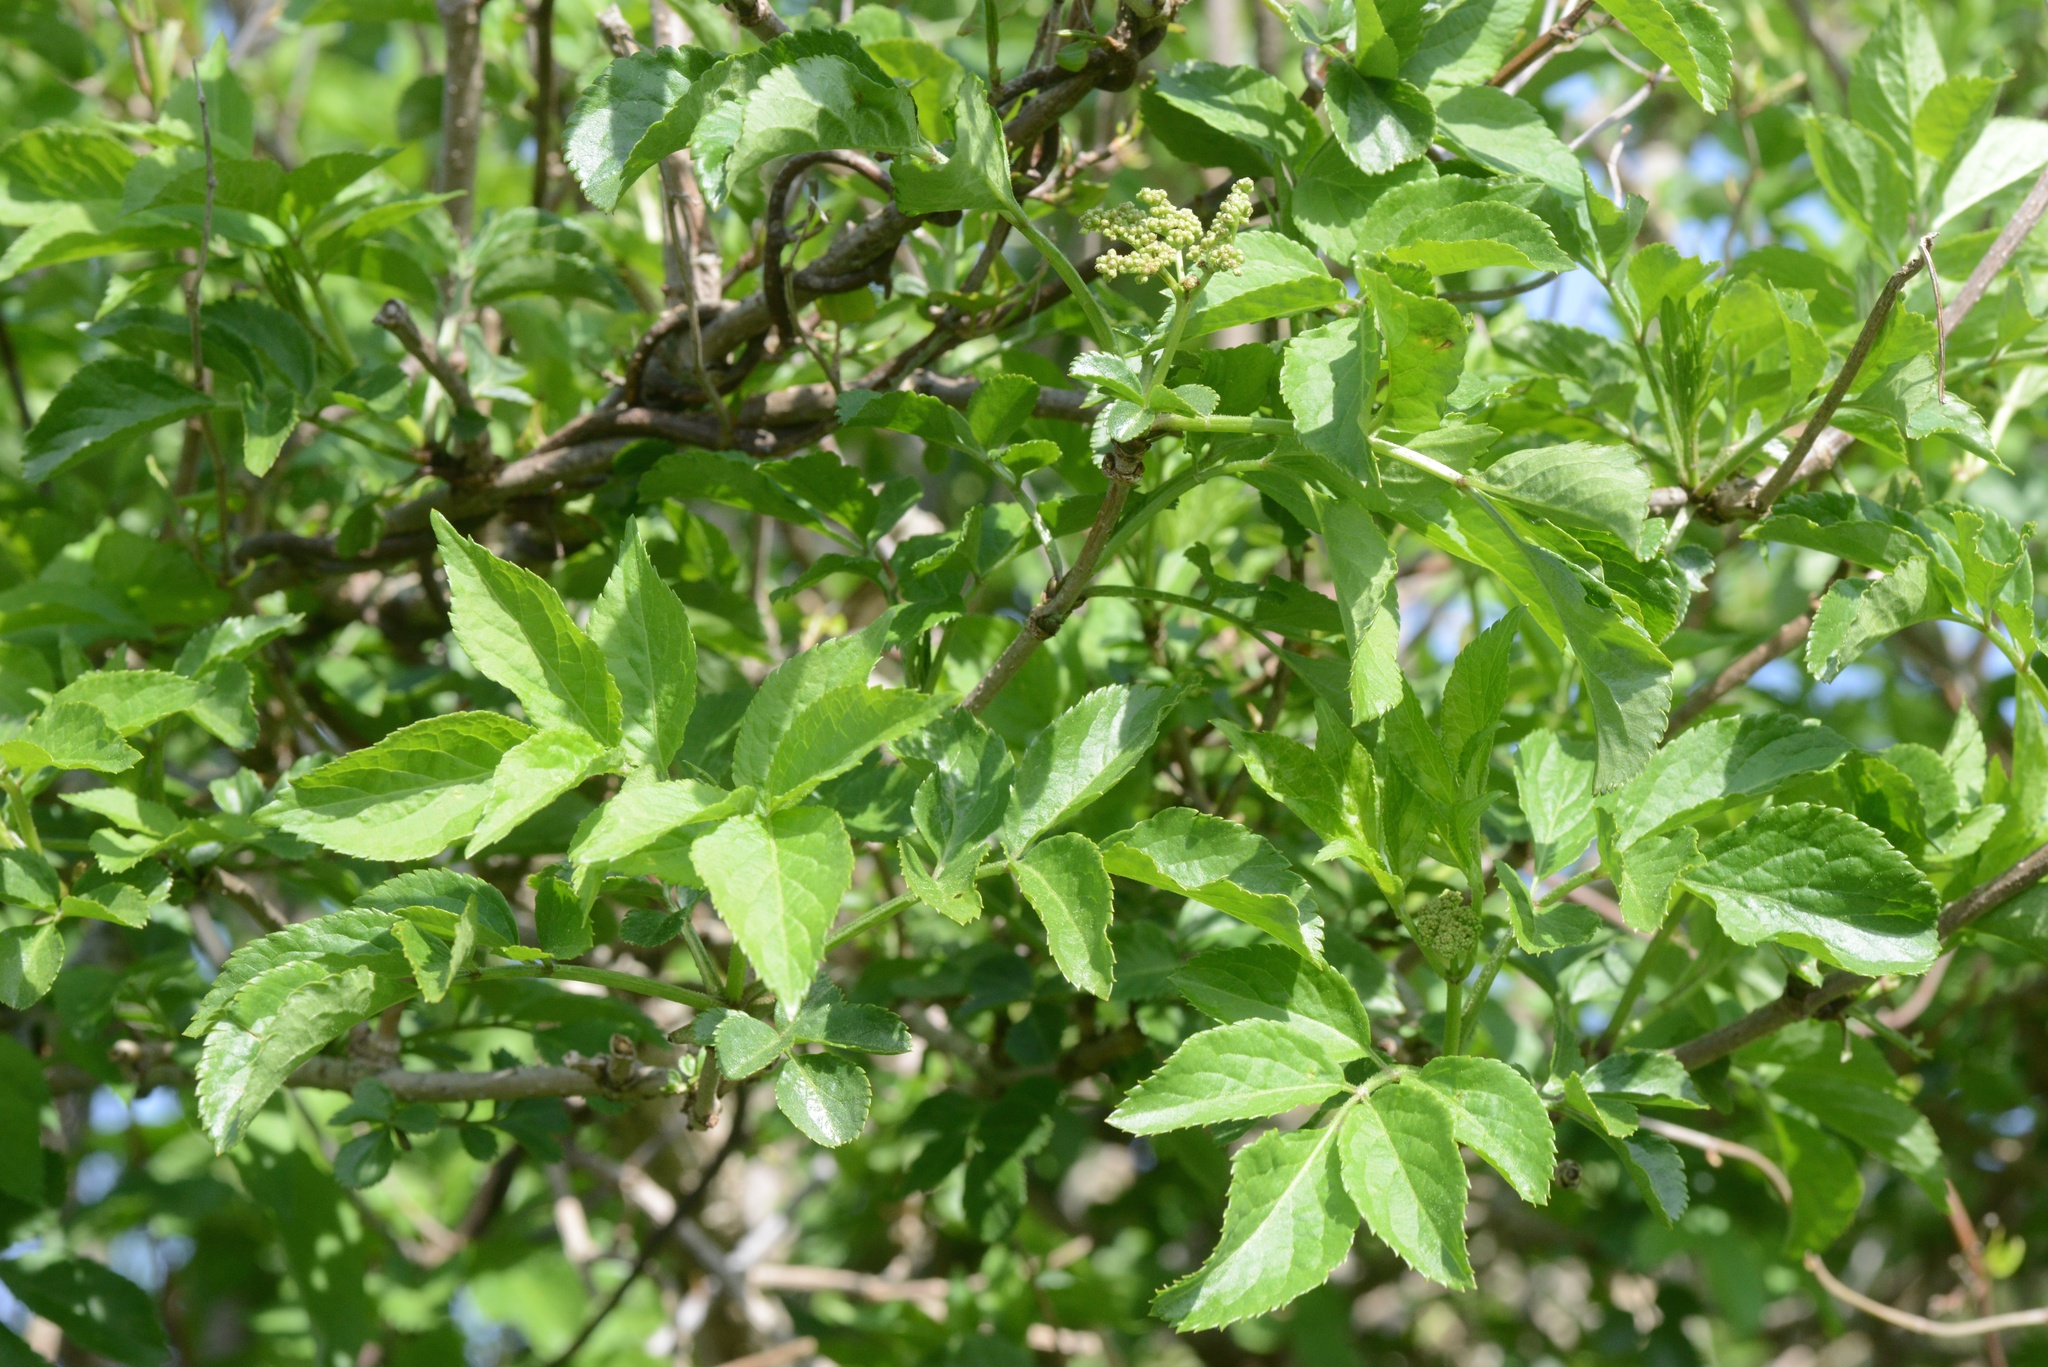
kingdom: Plantae
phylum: Tracheophyta
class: Magnoliopsida
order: Dipsacales
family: Viburnaceae
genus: Sambucus
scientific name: Sambucus nigra
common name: Elder
